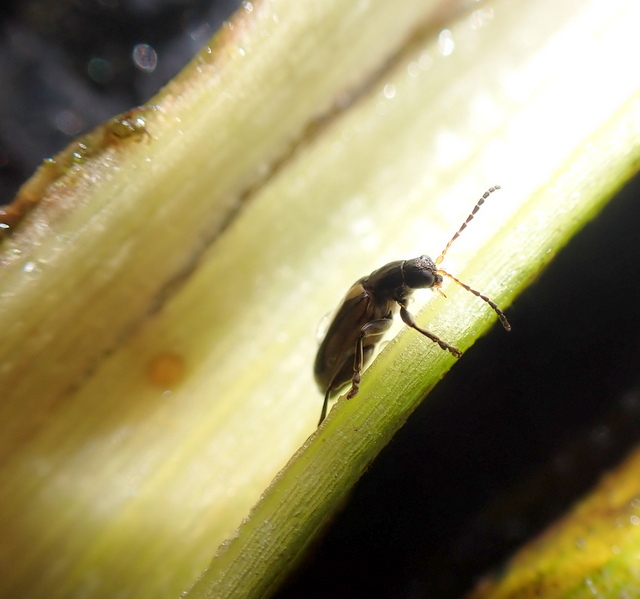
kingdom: Animalia
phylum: Arthropoda
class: Insecta
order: Coleoptera
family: Chrysomelidae
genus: Agasicles
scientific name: Agasicles hygrophila
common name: Alligatorweed flea beetle
